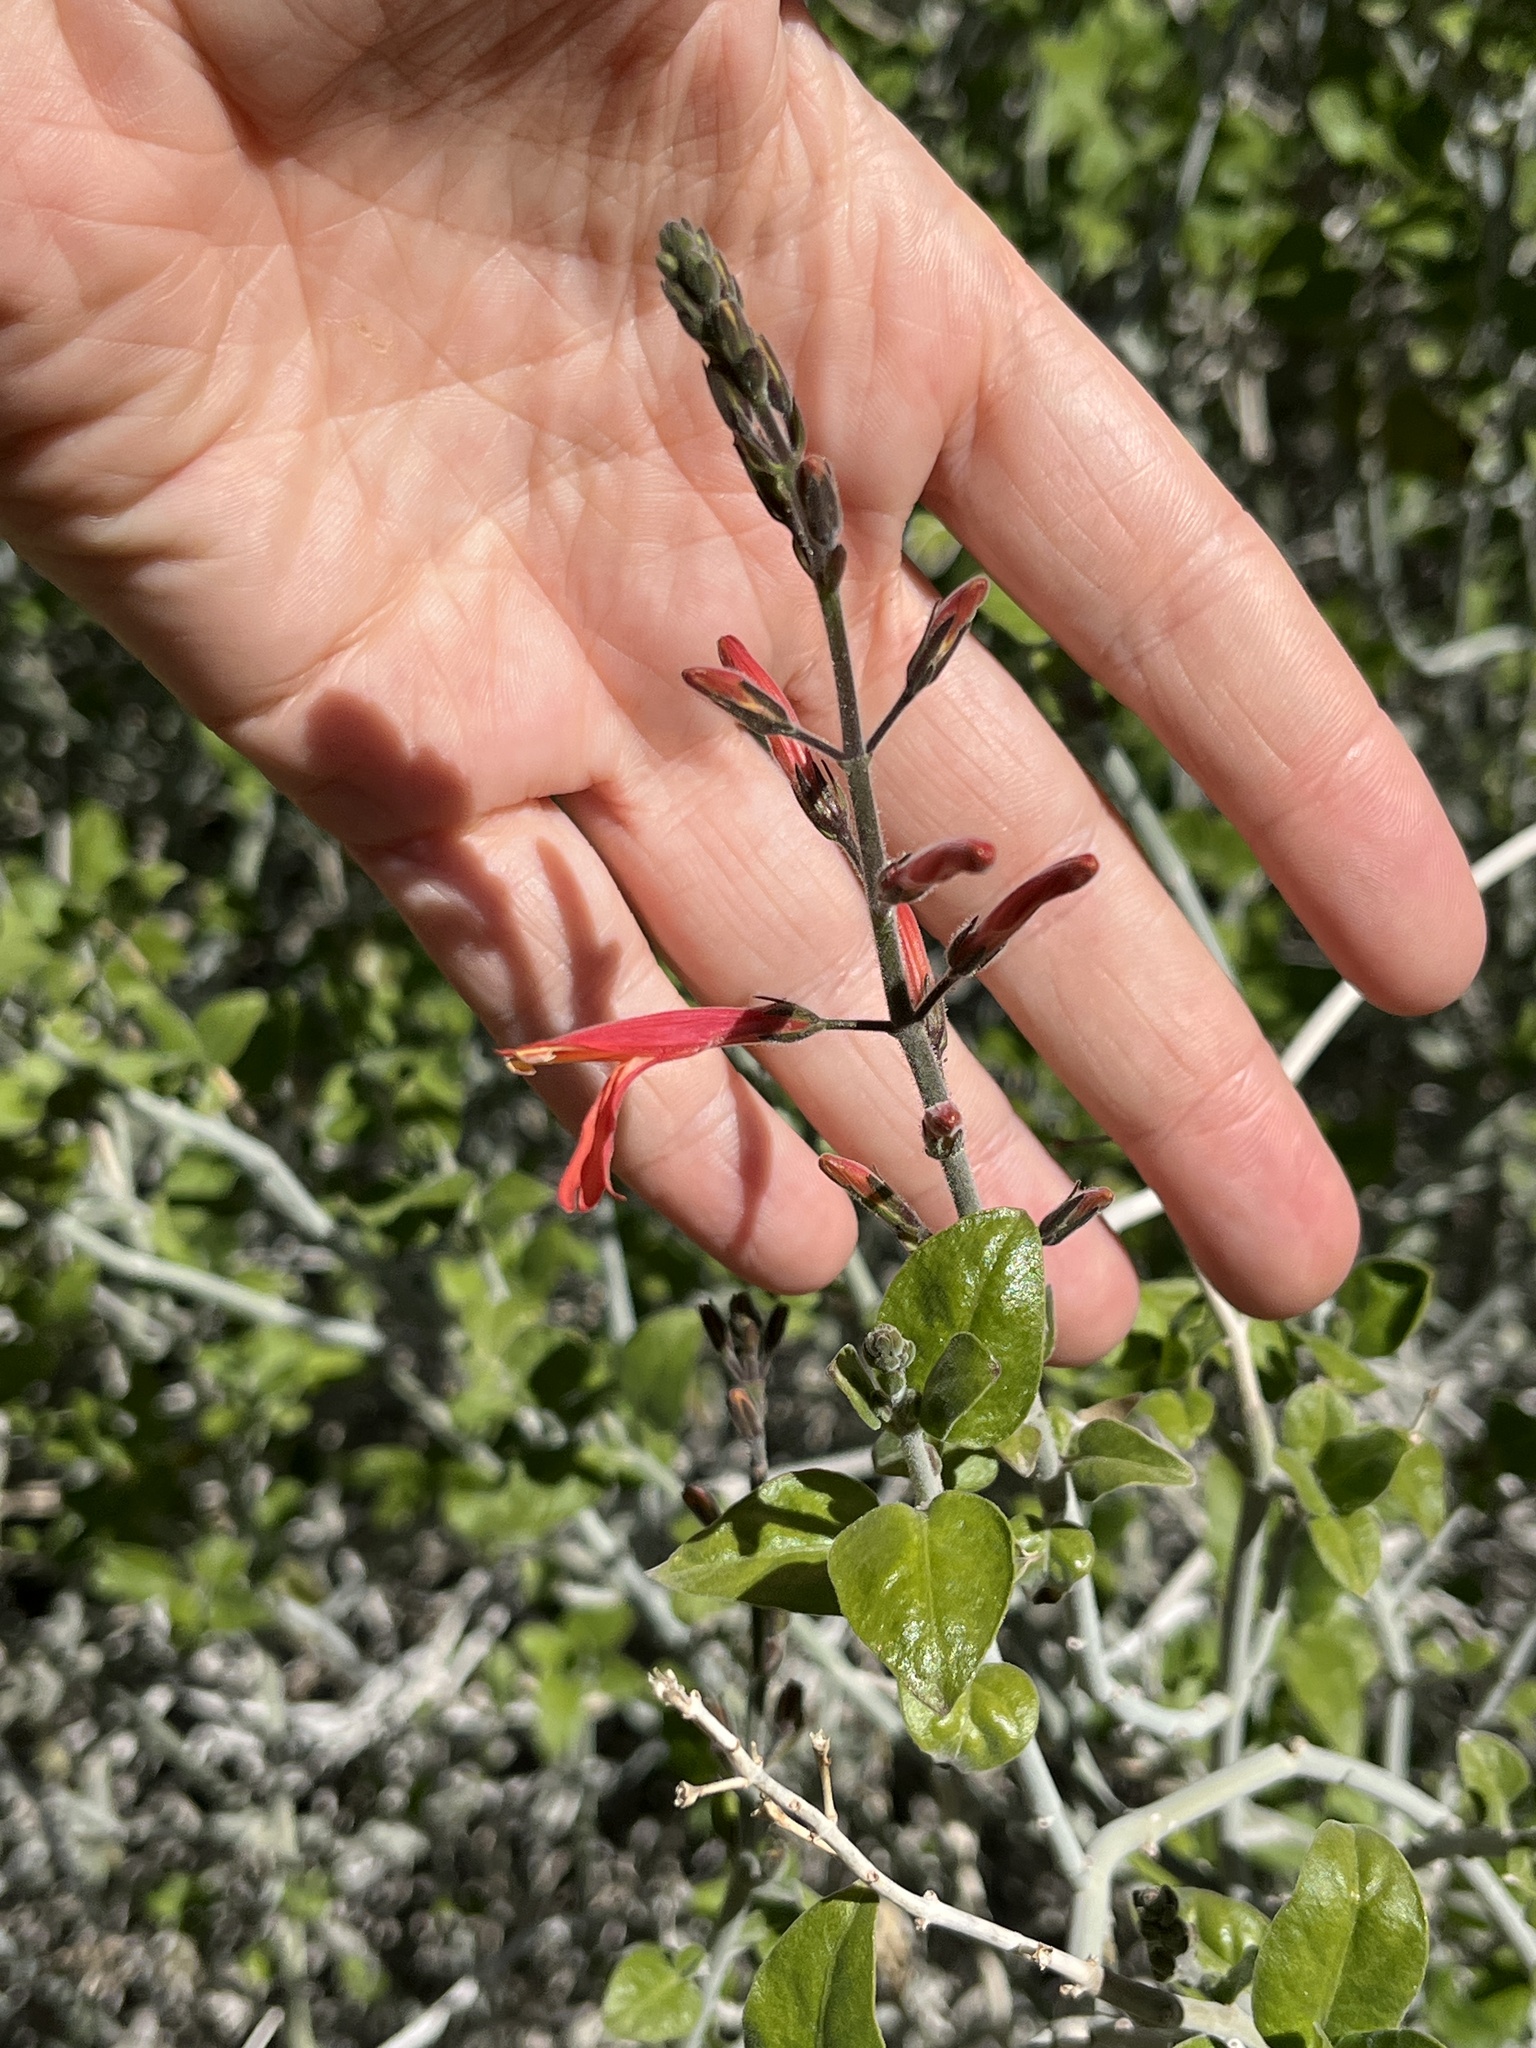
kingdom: Plantae
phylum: Tracheophyta
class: Magnoliopsida
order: Lamiales
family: Acanthaceae
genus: Justicia
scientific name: Justicia californica
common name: Chuparosa-honeysuckle
